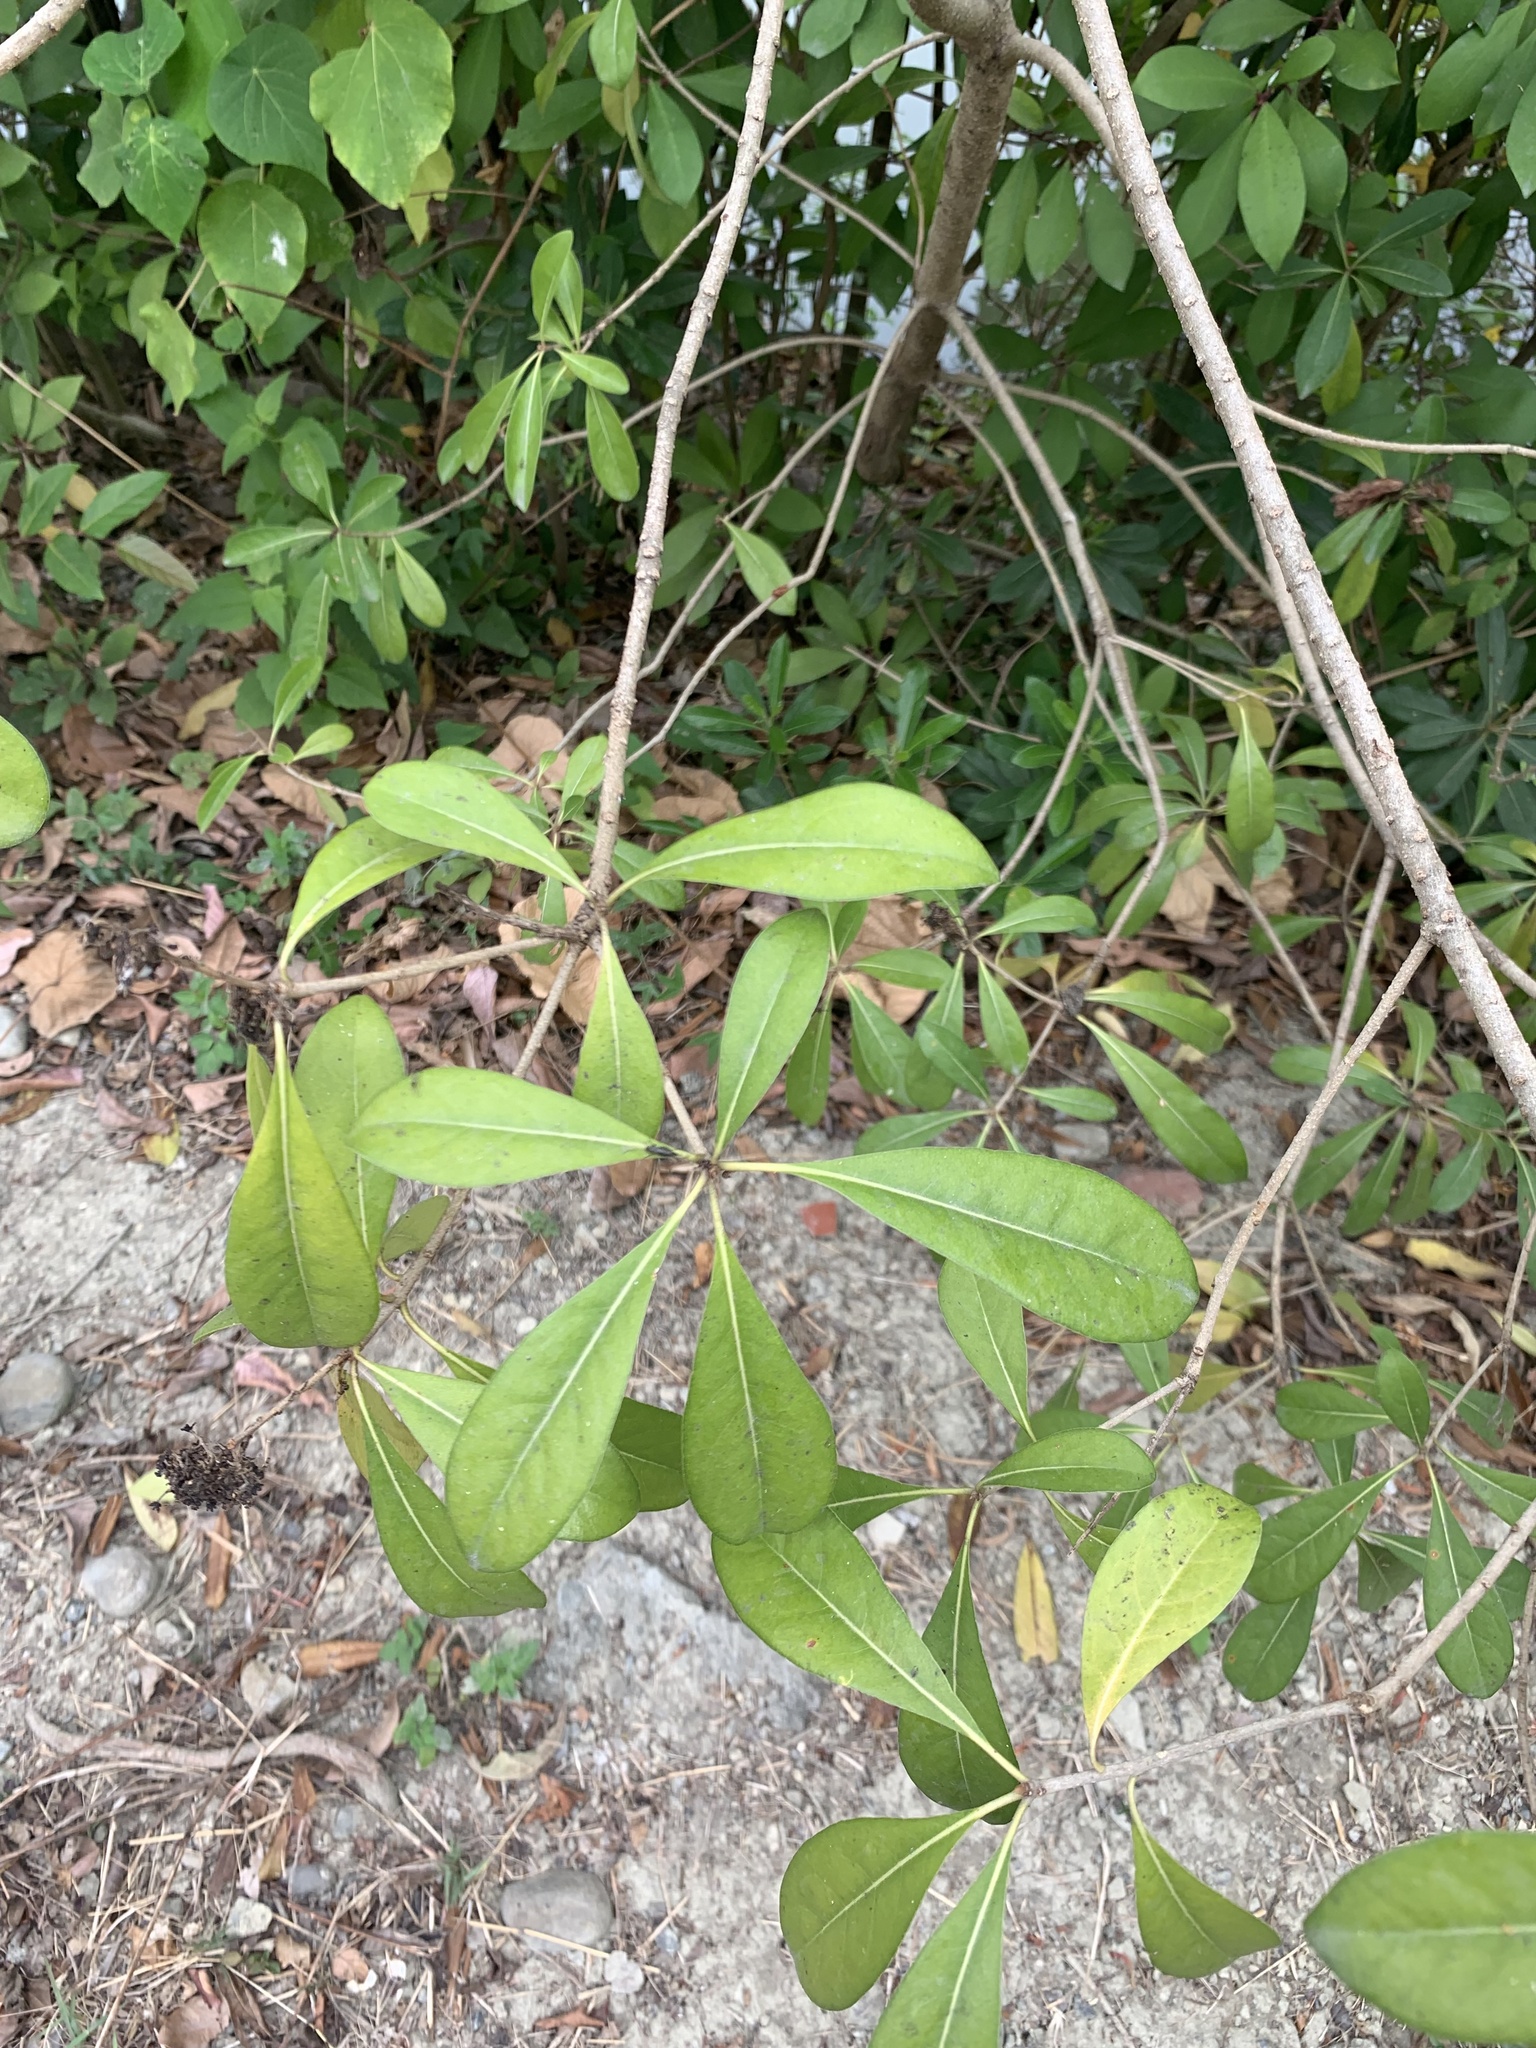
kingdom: Plantae
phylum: Tracheophyta
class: Magnoliopsida
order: Laurales
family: Lauraceae
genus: Machilus
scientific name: Machilus zuihoensis
